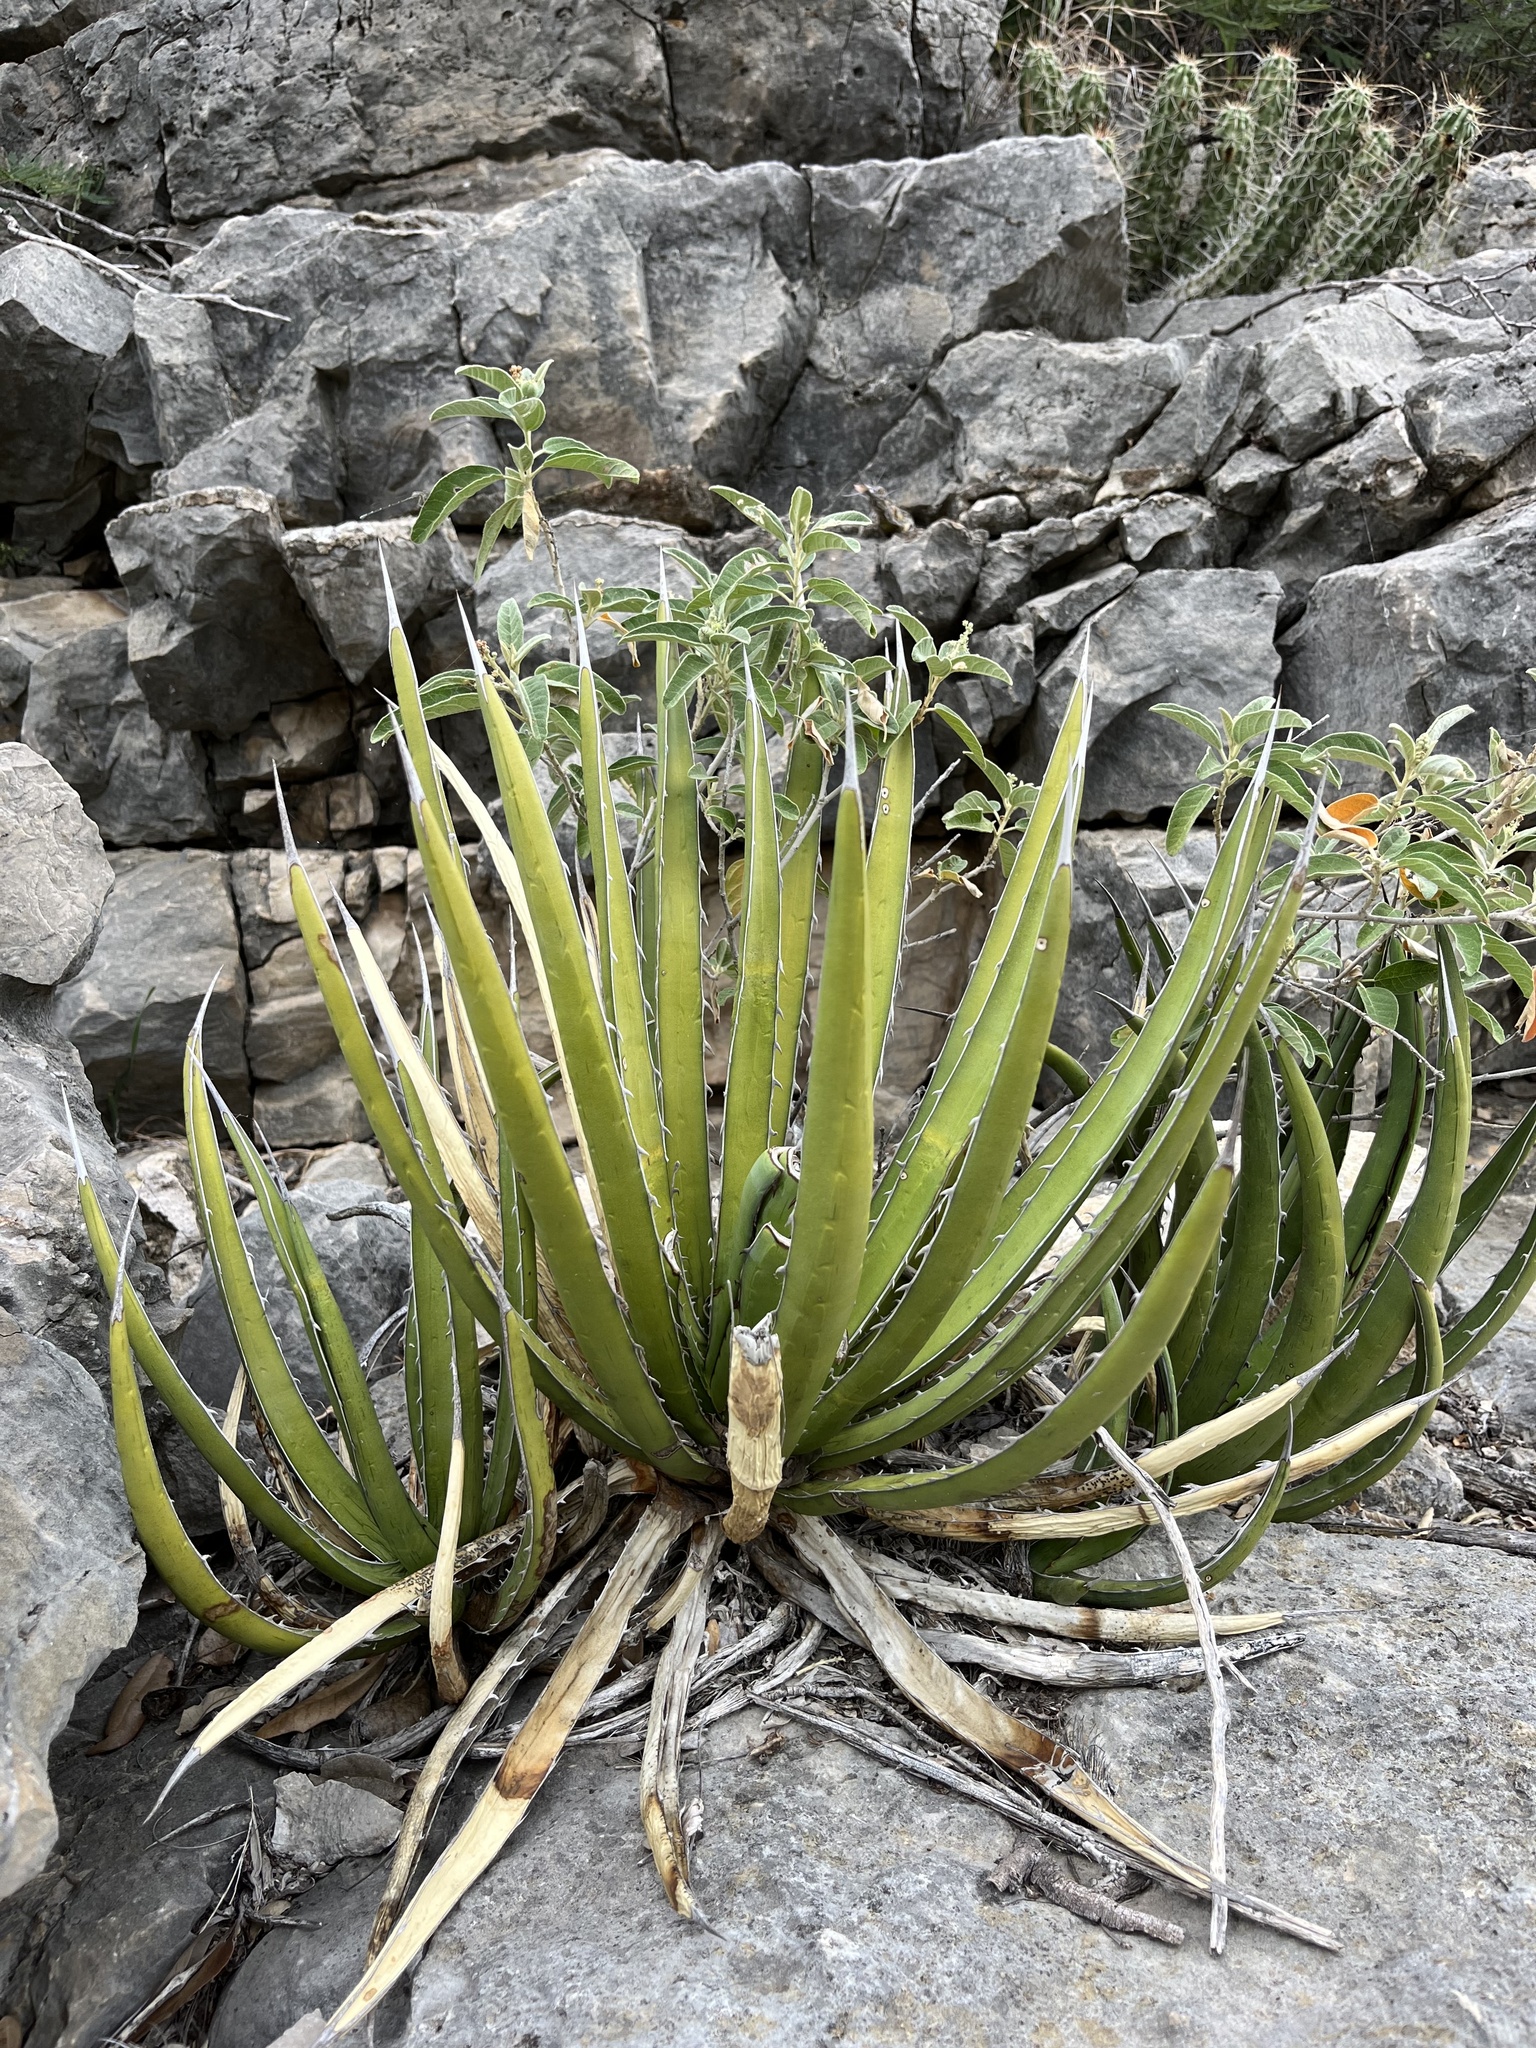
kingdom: Plantae
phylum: Tracheophyta
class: Liliopsida
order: Asparagales
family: Asparagaceae
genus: Agave
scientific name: Agave lechuguilla
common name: Lecheguilla agave
